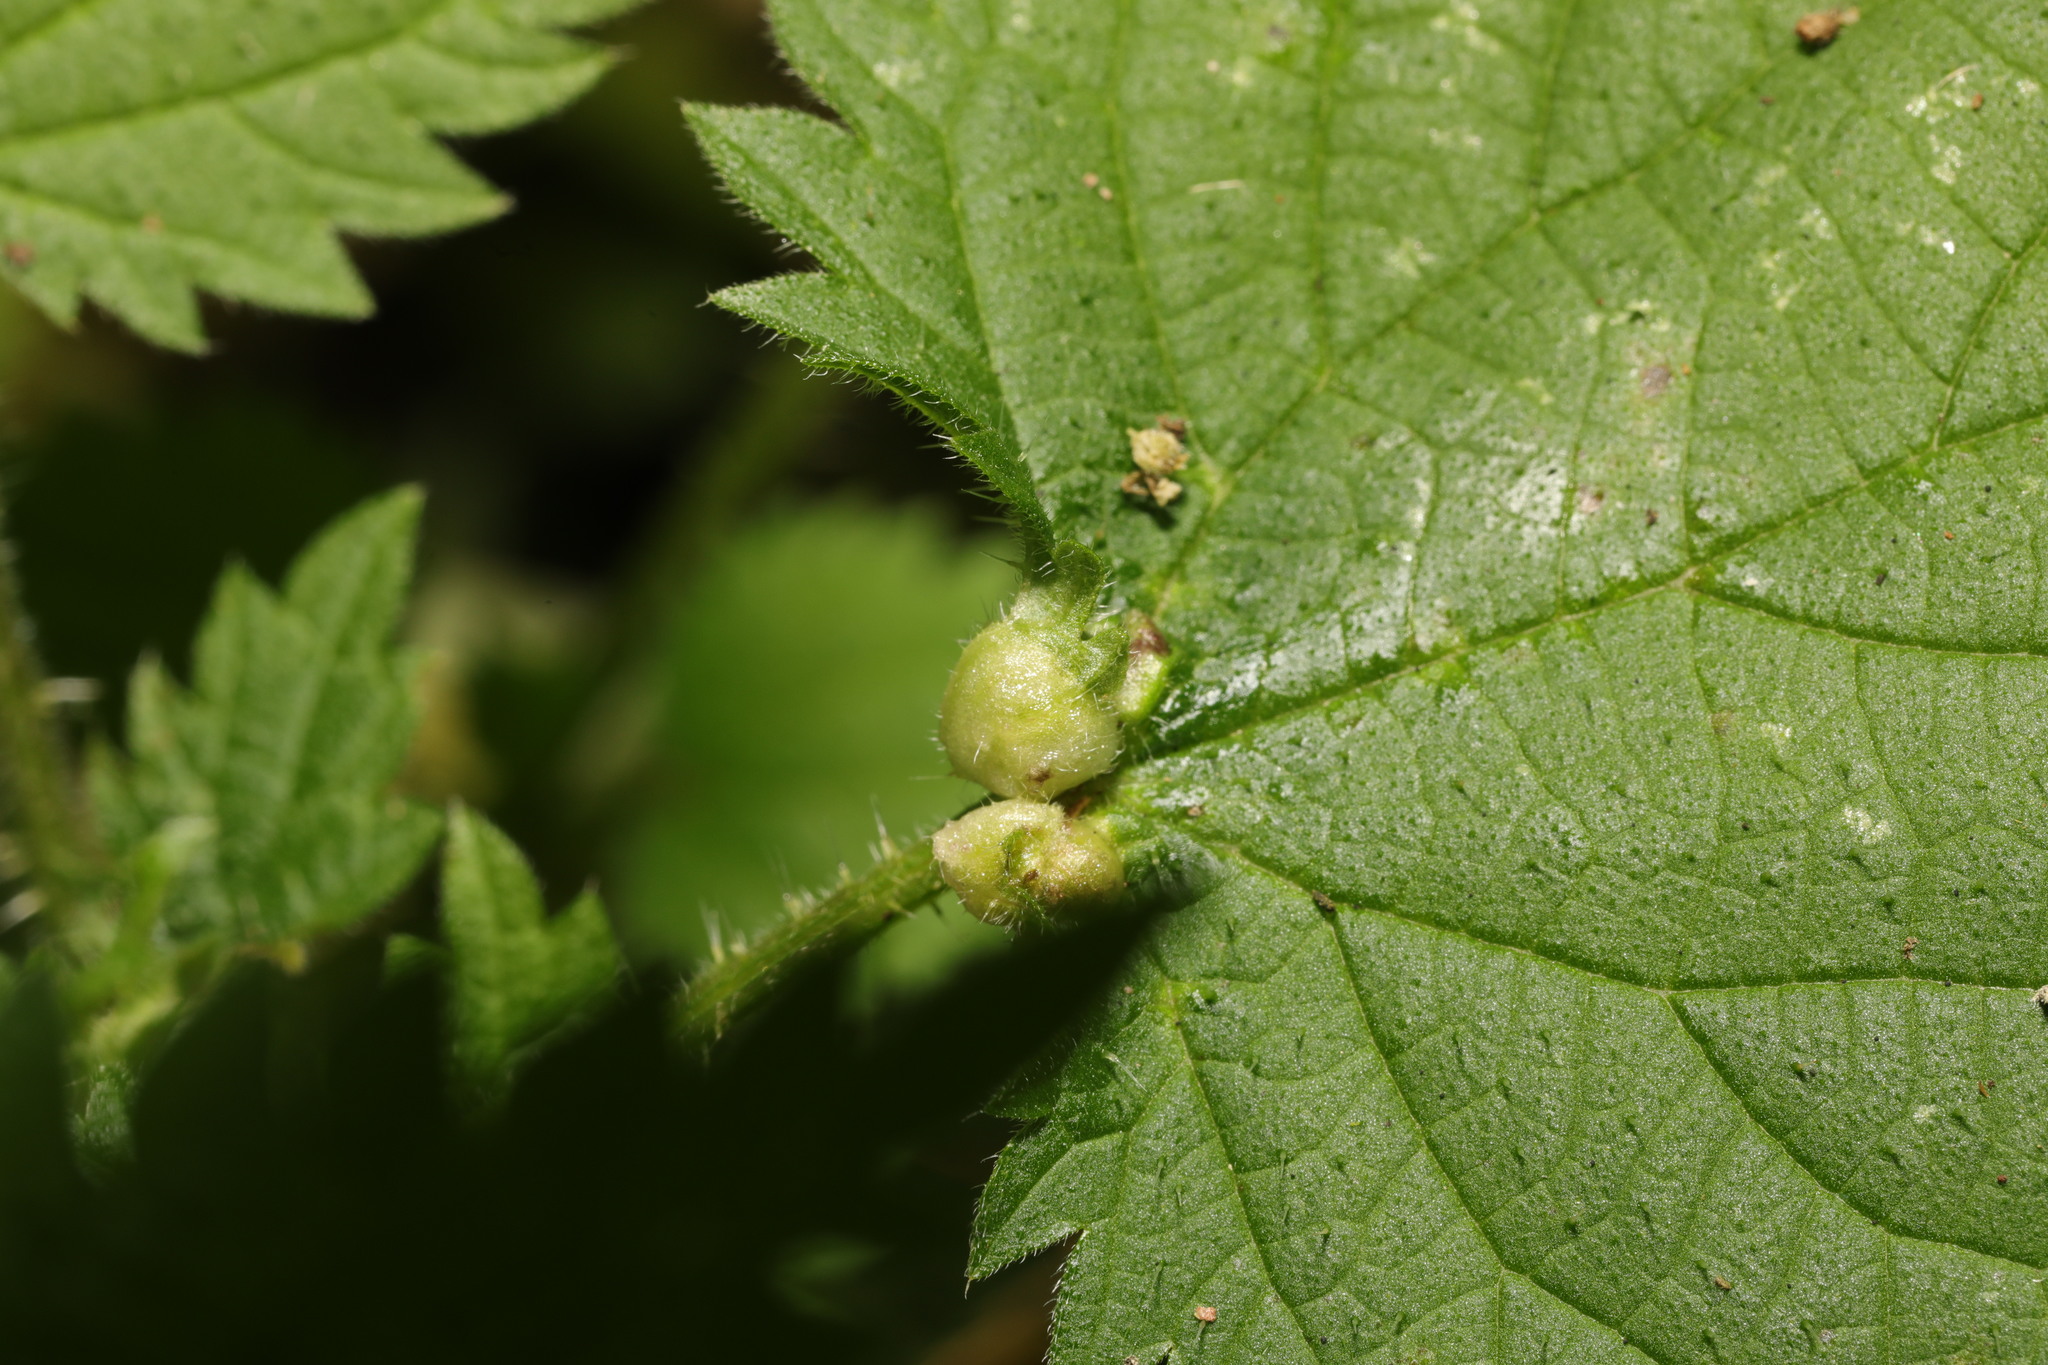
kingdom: Animalia
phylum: Arthropoda
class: Insecta
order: Diptera
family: Cecidomyiidae
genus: Dasineura
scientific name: Dasineura urticae
